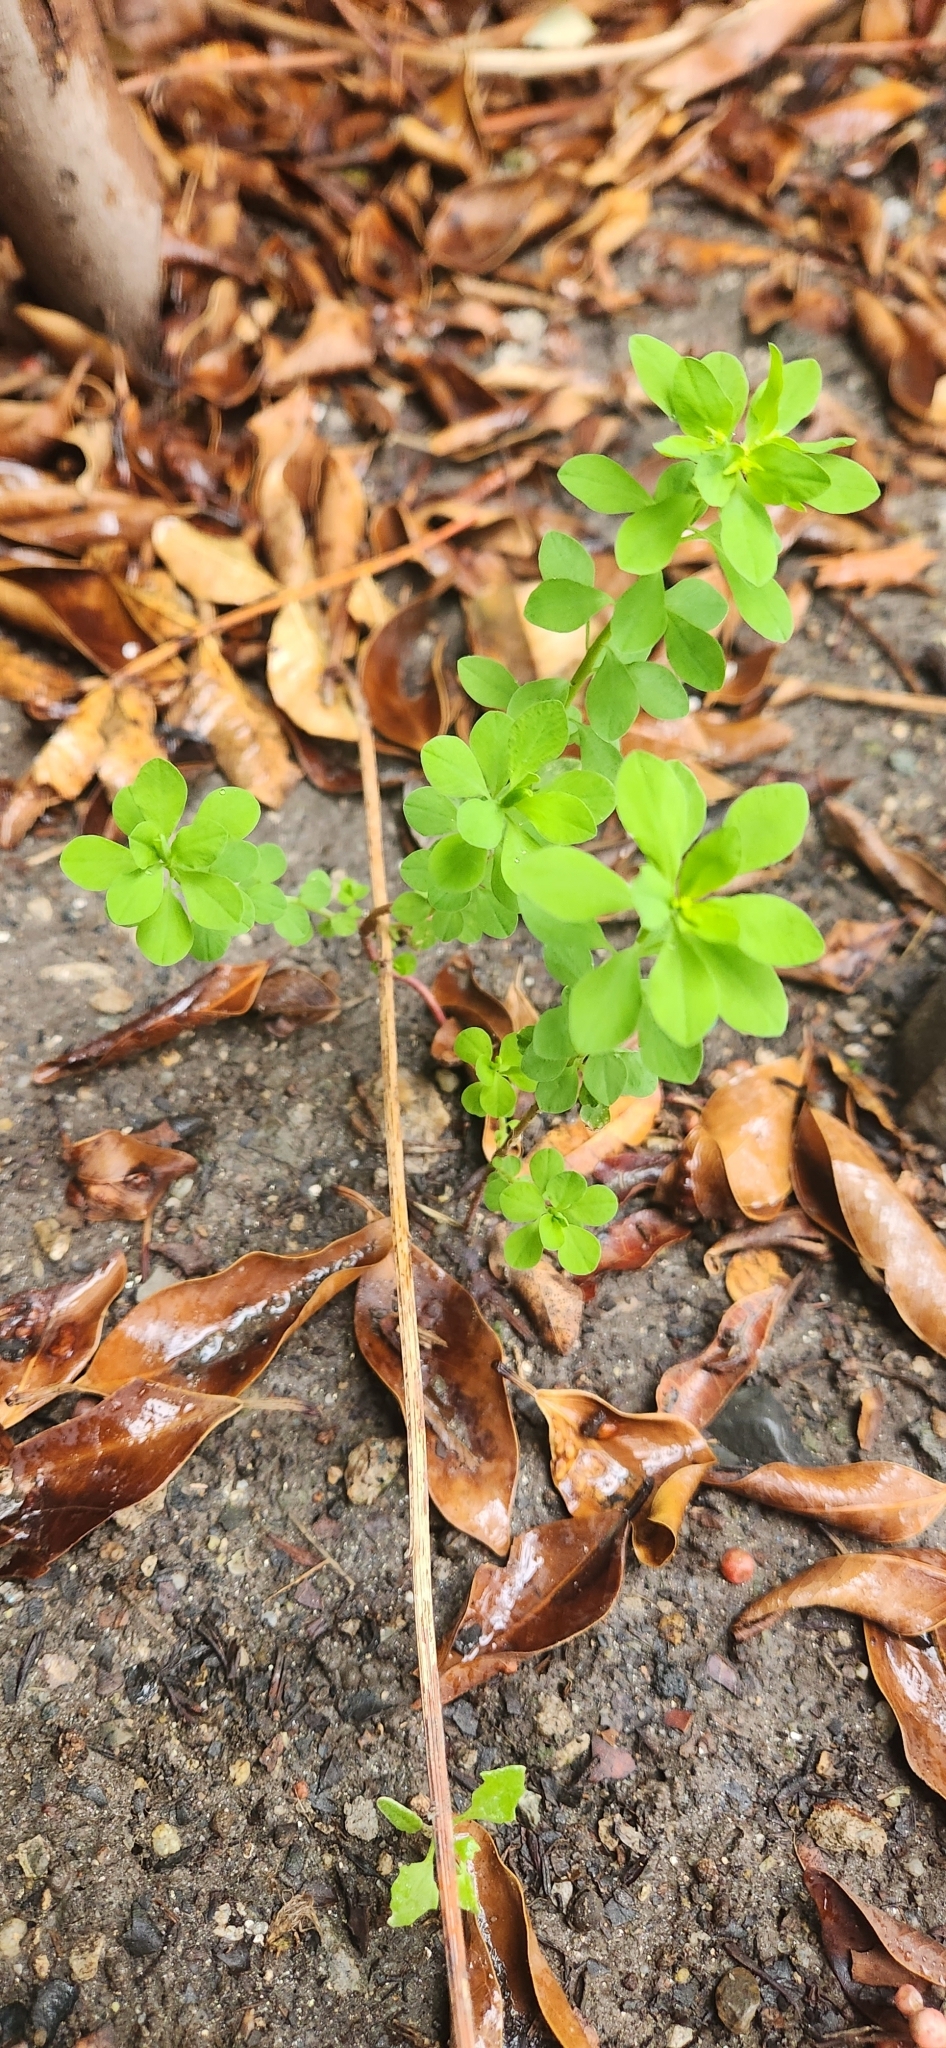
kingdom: Plantae
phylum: Tracheophyta
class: Magnoliopsida
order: Malpighiales
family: Euphorbiaceae
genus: Euphorbia
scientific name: Euphorbia peplus
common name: Petty spurge
